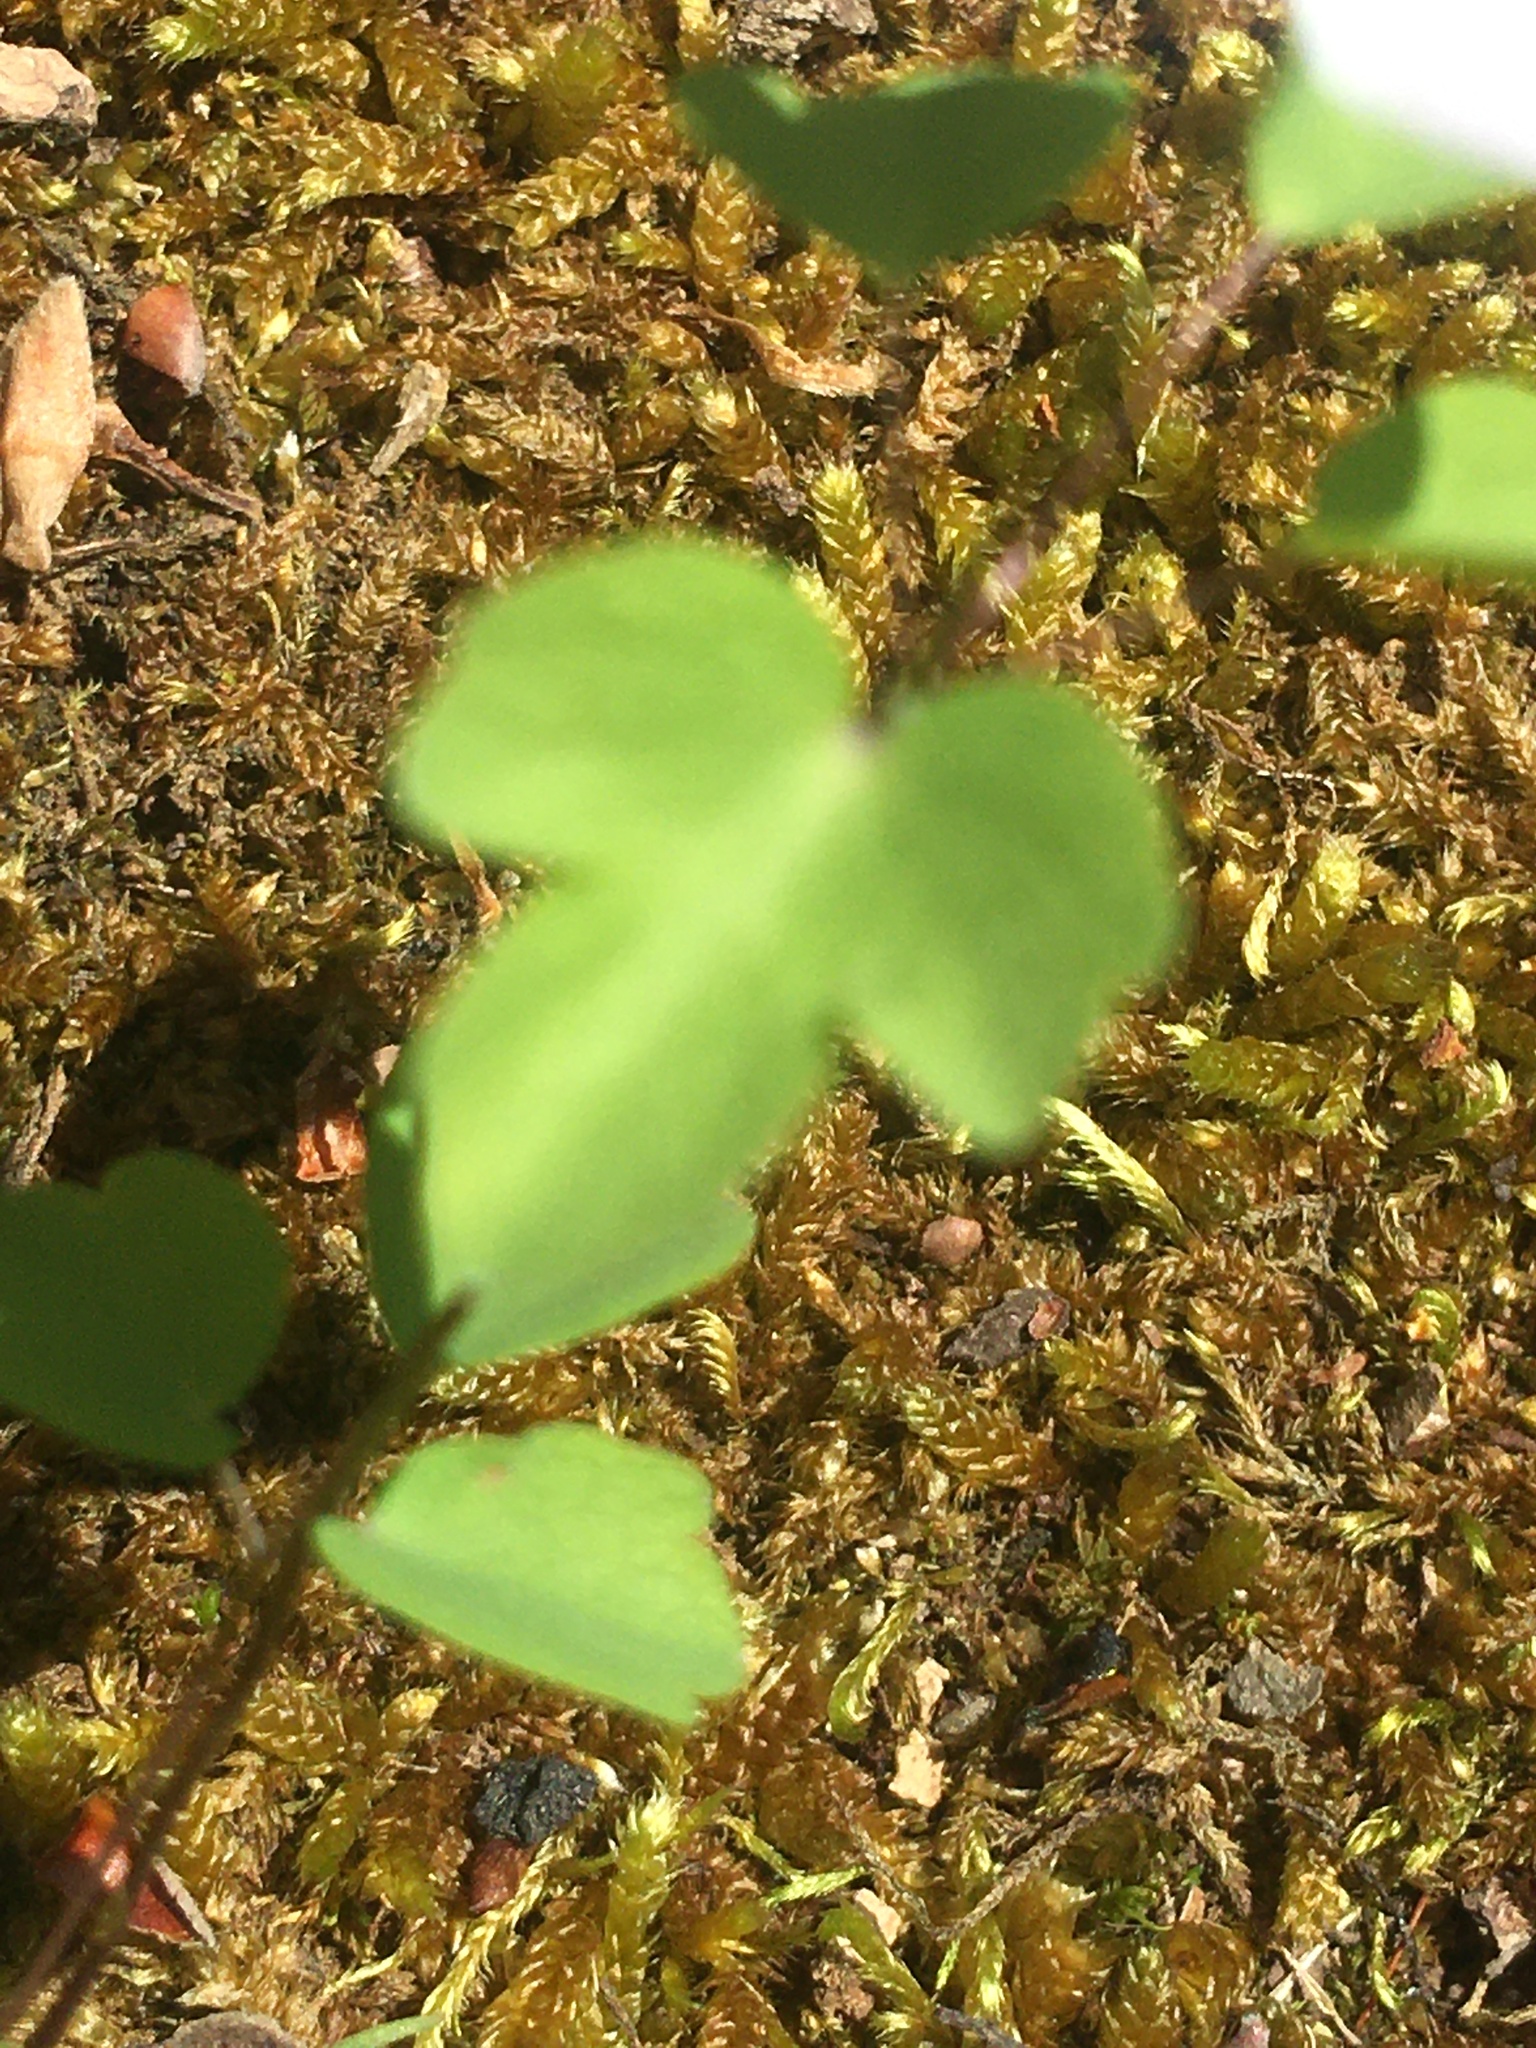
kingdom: Plantae
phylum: Tracheophyta
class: Magnoliopsida
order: Ranunculales
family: Ranunculaceae
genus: Thalictrum
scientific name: Thalictrum thalictroides
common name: Rue-anemone
